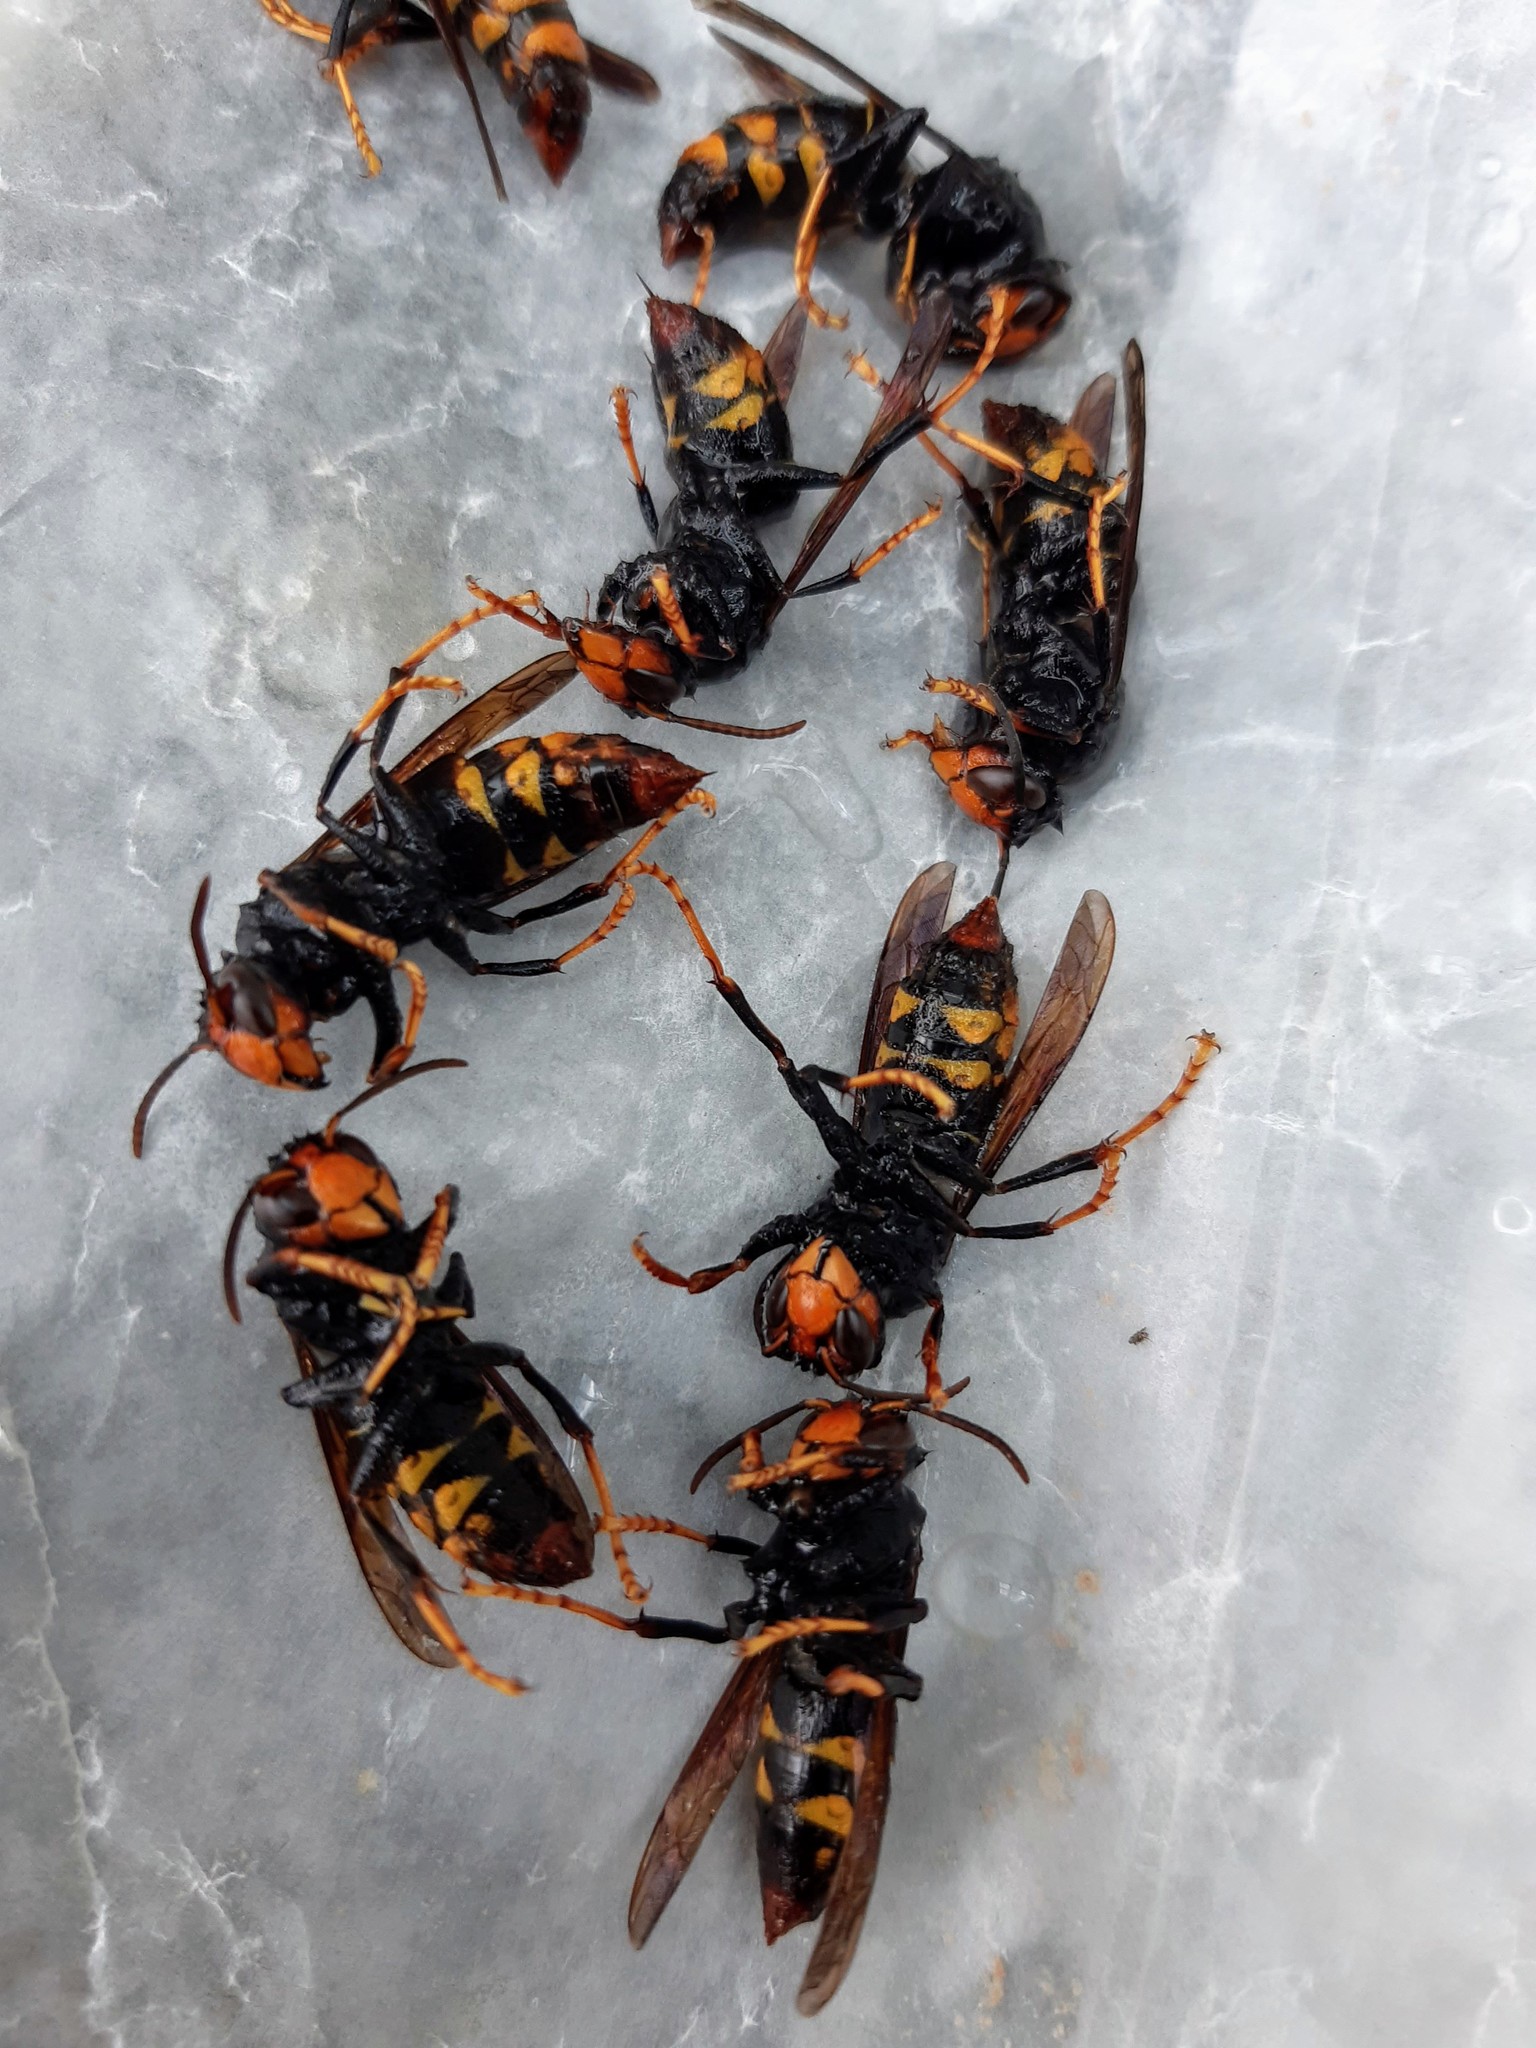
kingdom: Animalia
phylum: Arthropoda
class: Insecta
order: Hymenoptera
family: Vespidae
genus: Vespa
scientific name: Vespa velutina
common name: Asian hornet
